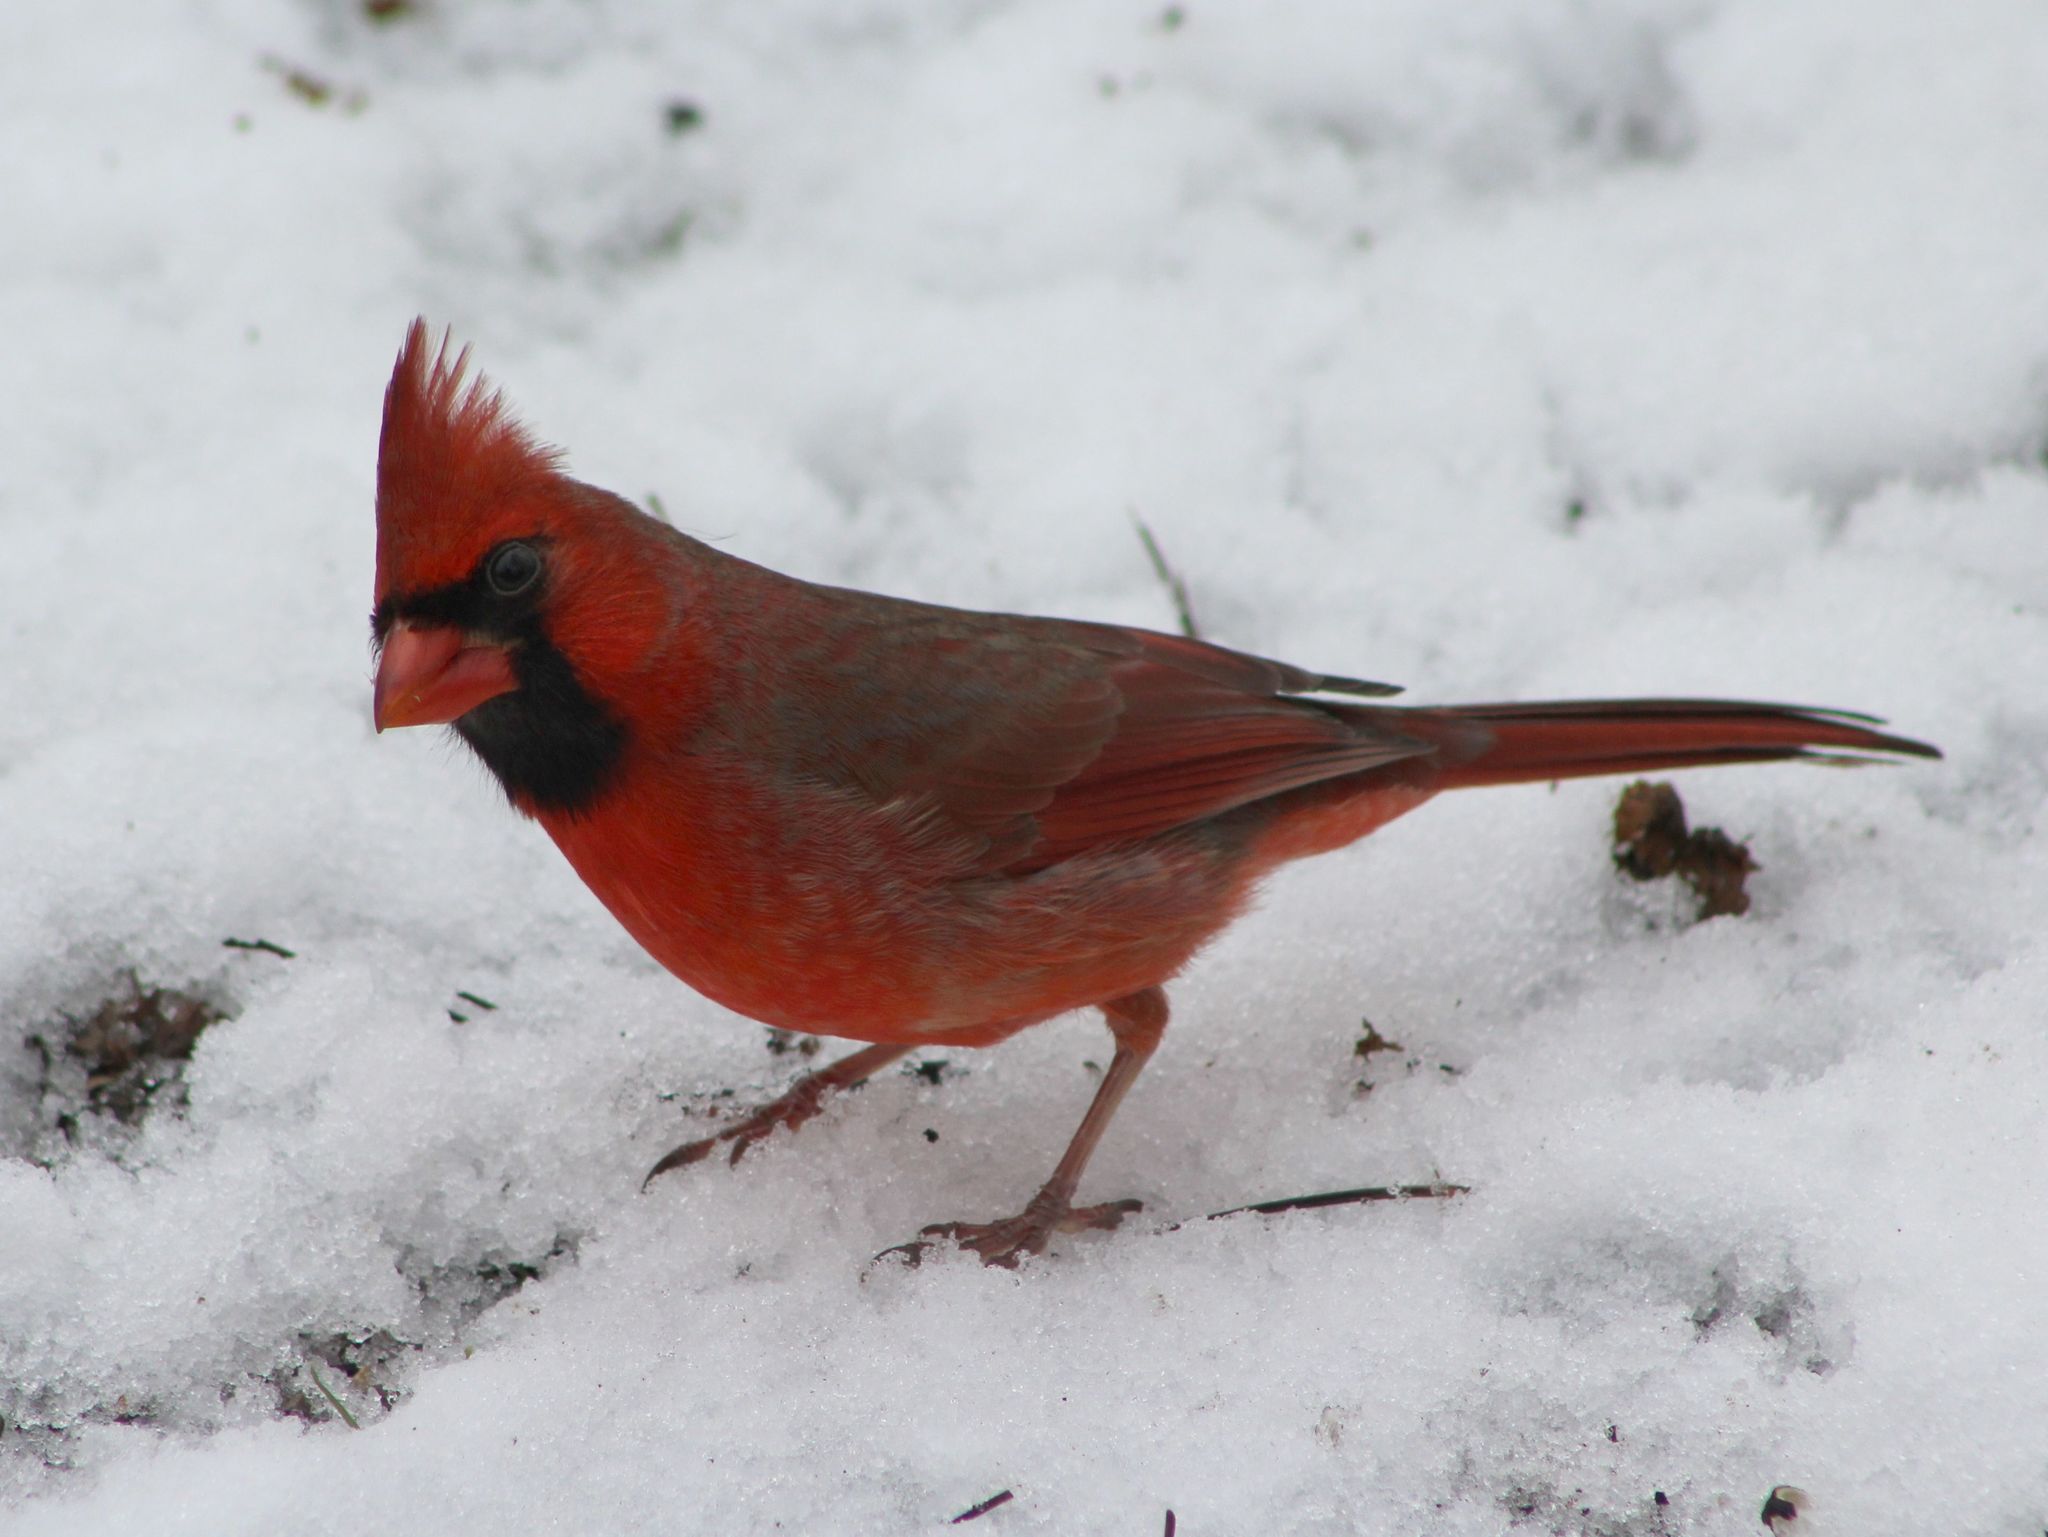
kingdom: Animalia
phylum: Chordata
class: Aves
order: Passeriformes
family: Cardinalidae
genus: Cardinalis
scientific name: Cardinalis cardinalis
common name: Northern cardinal
